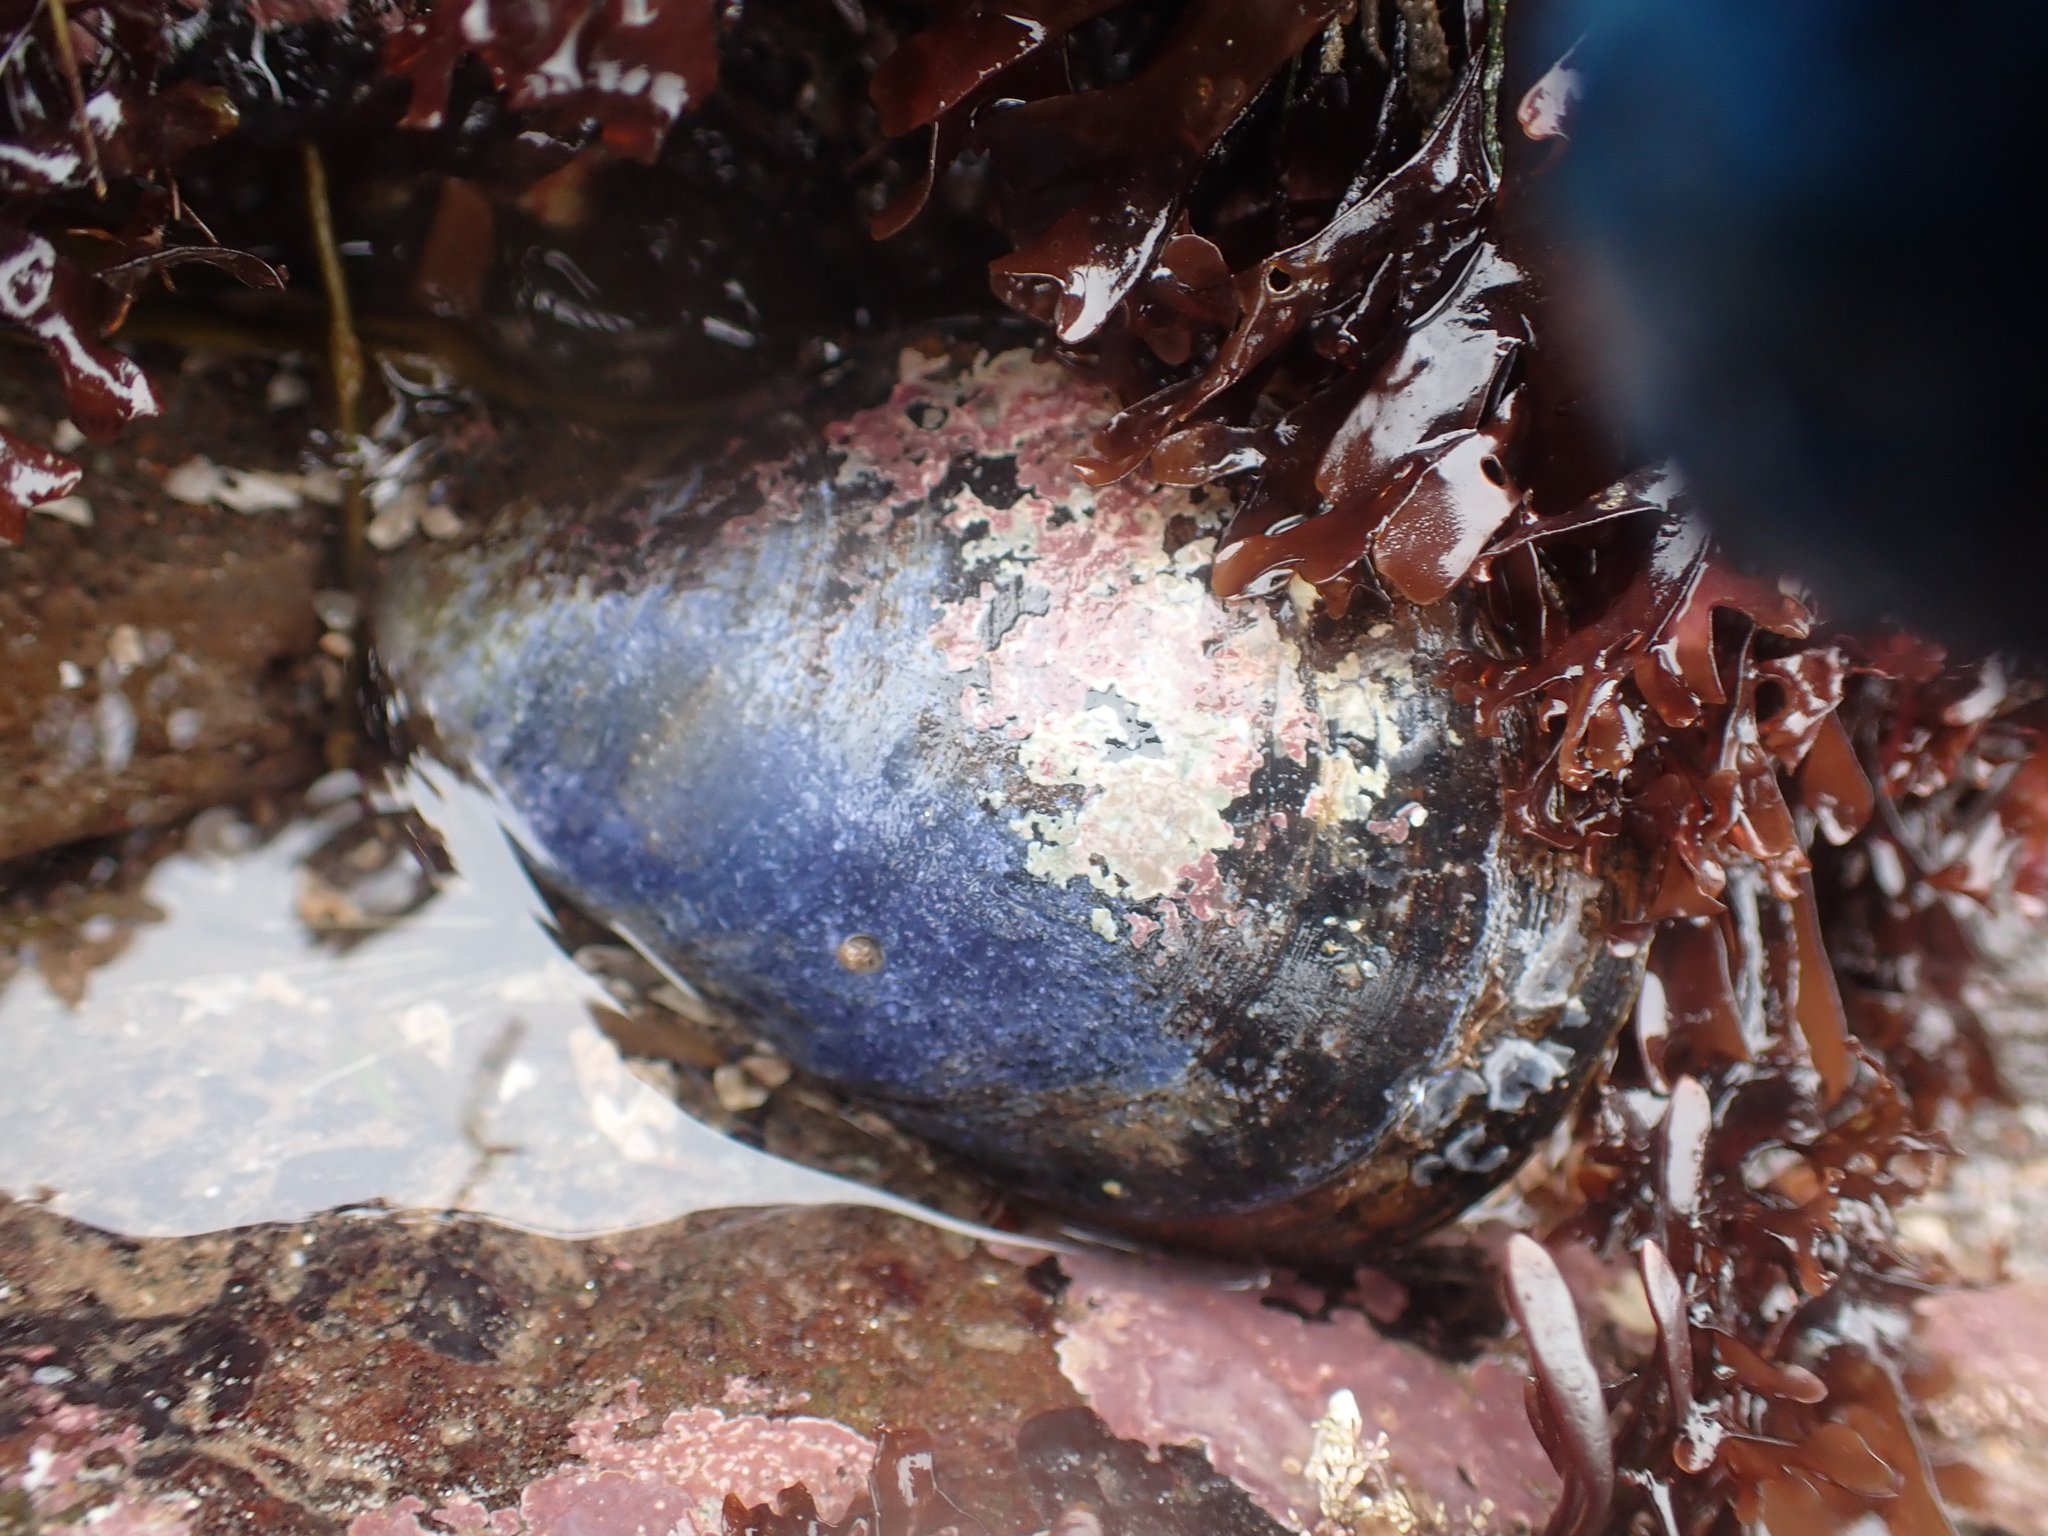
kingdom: Animalia
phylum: Mollusca
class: Bivalvia
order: Mytilida
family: Mytilidae
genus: Mytilus
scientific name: Mytilus edulis
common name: Blue mussel
